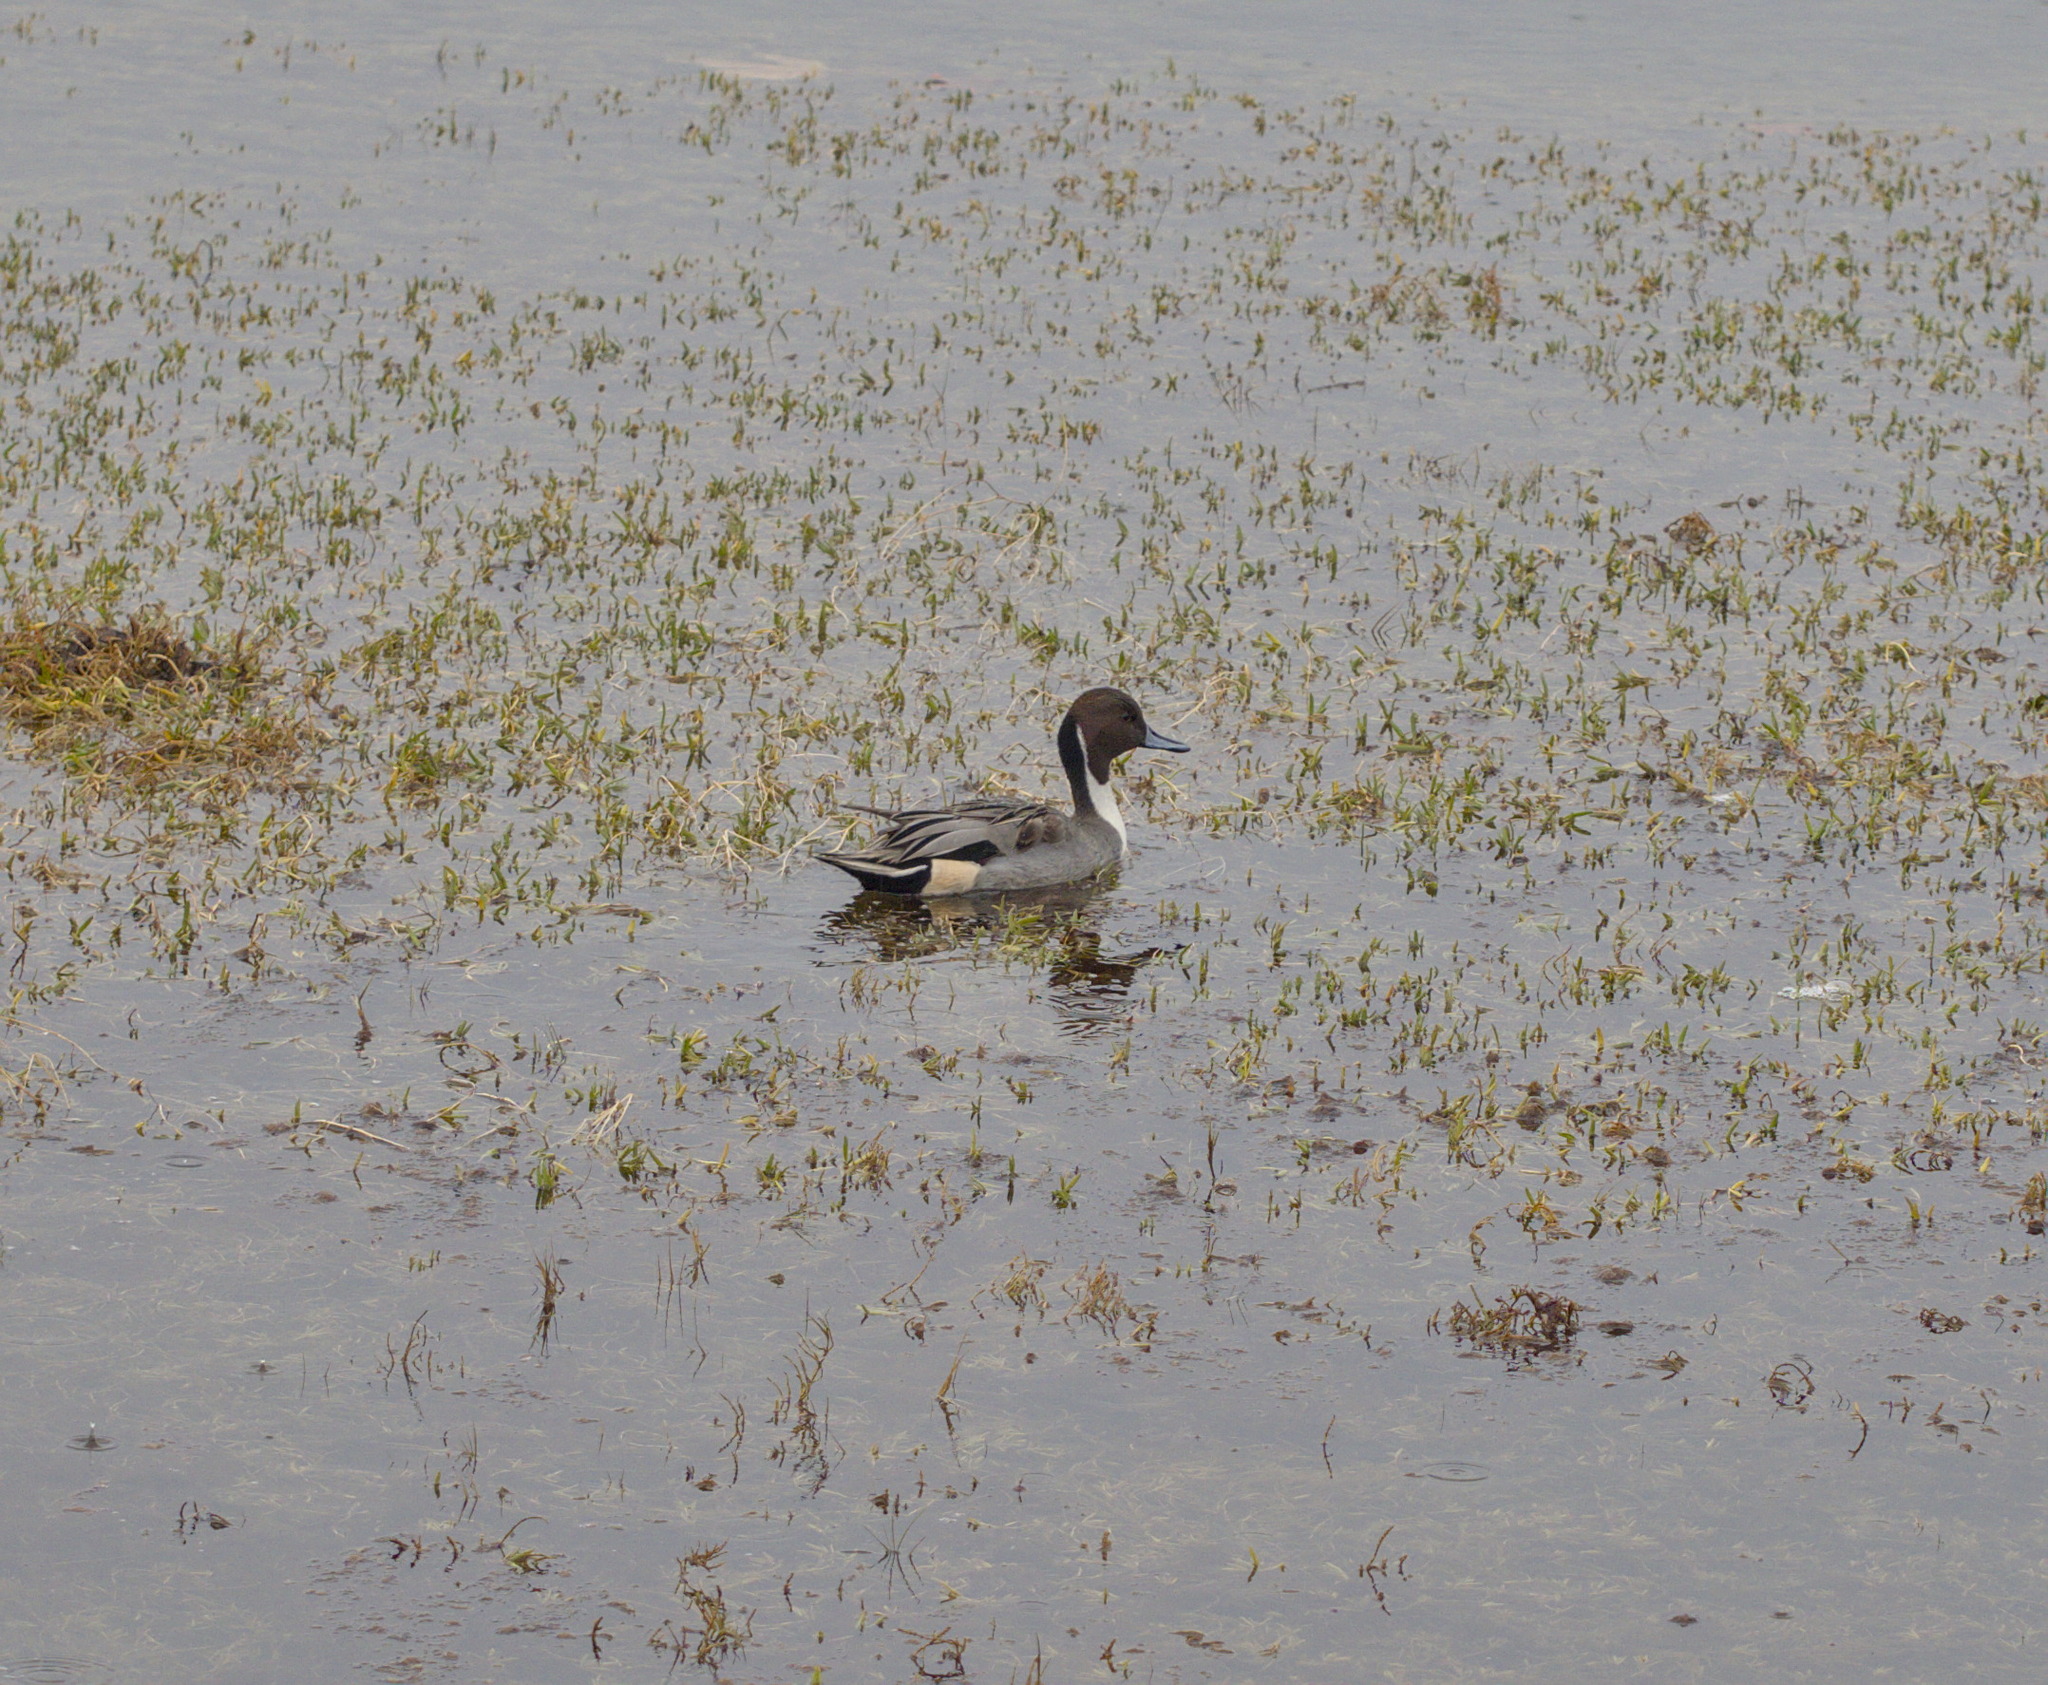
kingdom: Animalia
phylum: Chordata
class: Aves
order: Anseriformes
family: Anatidae
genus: Anas
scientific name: Anas acuta
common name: Northern pintail
